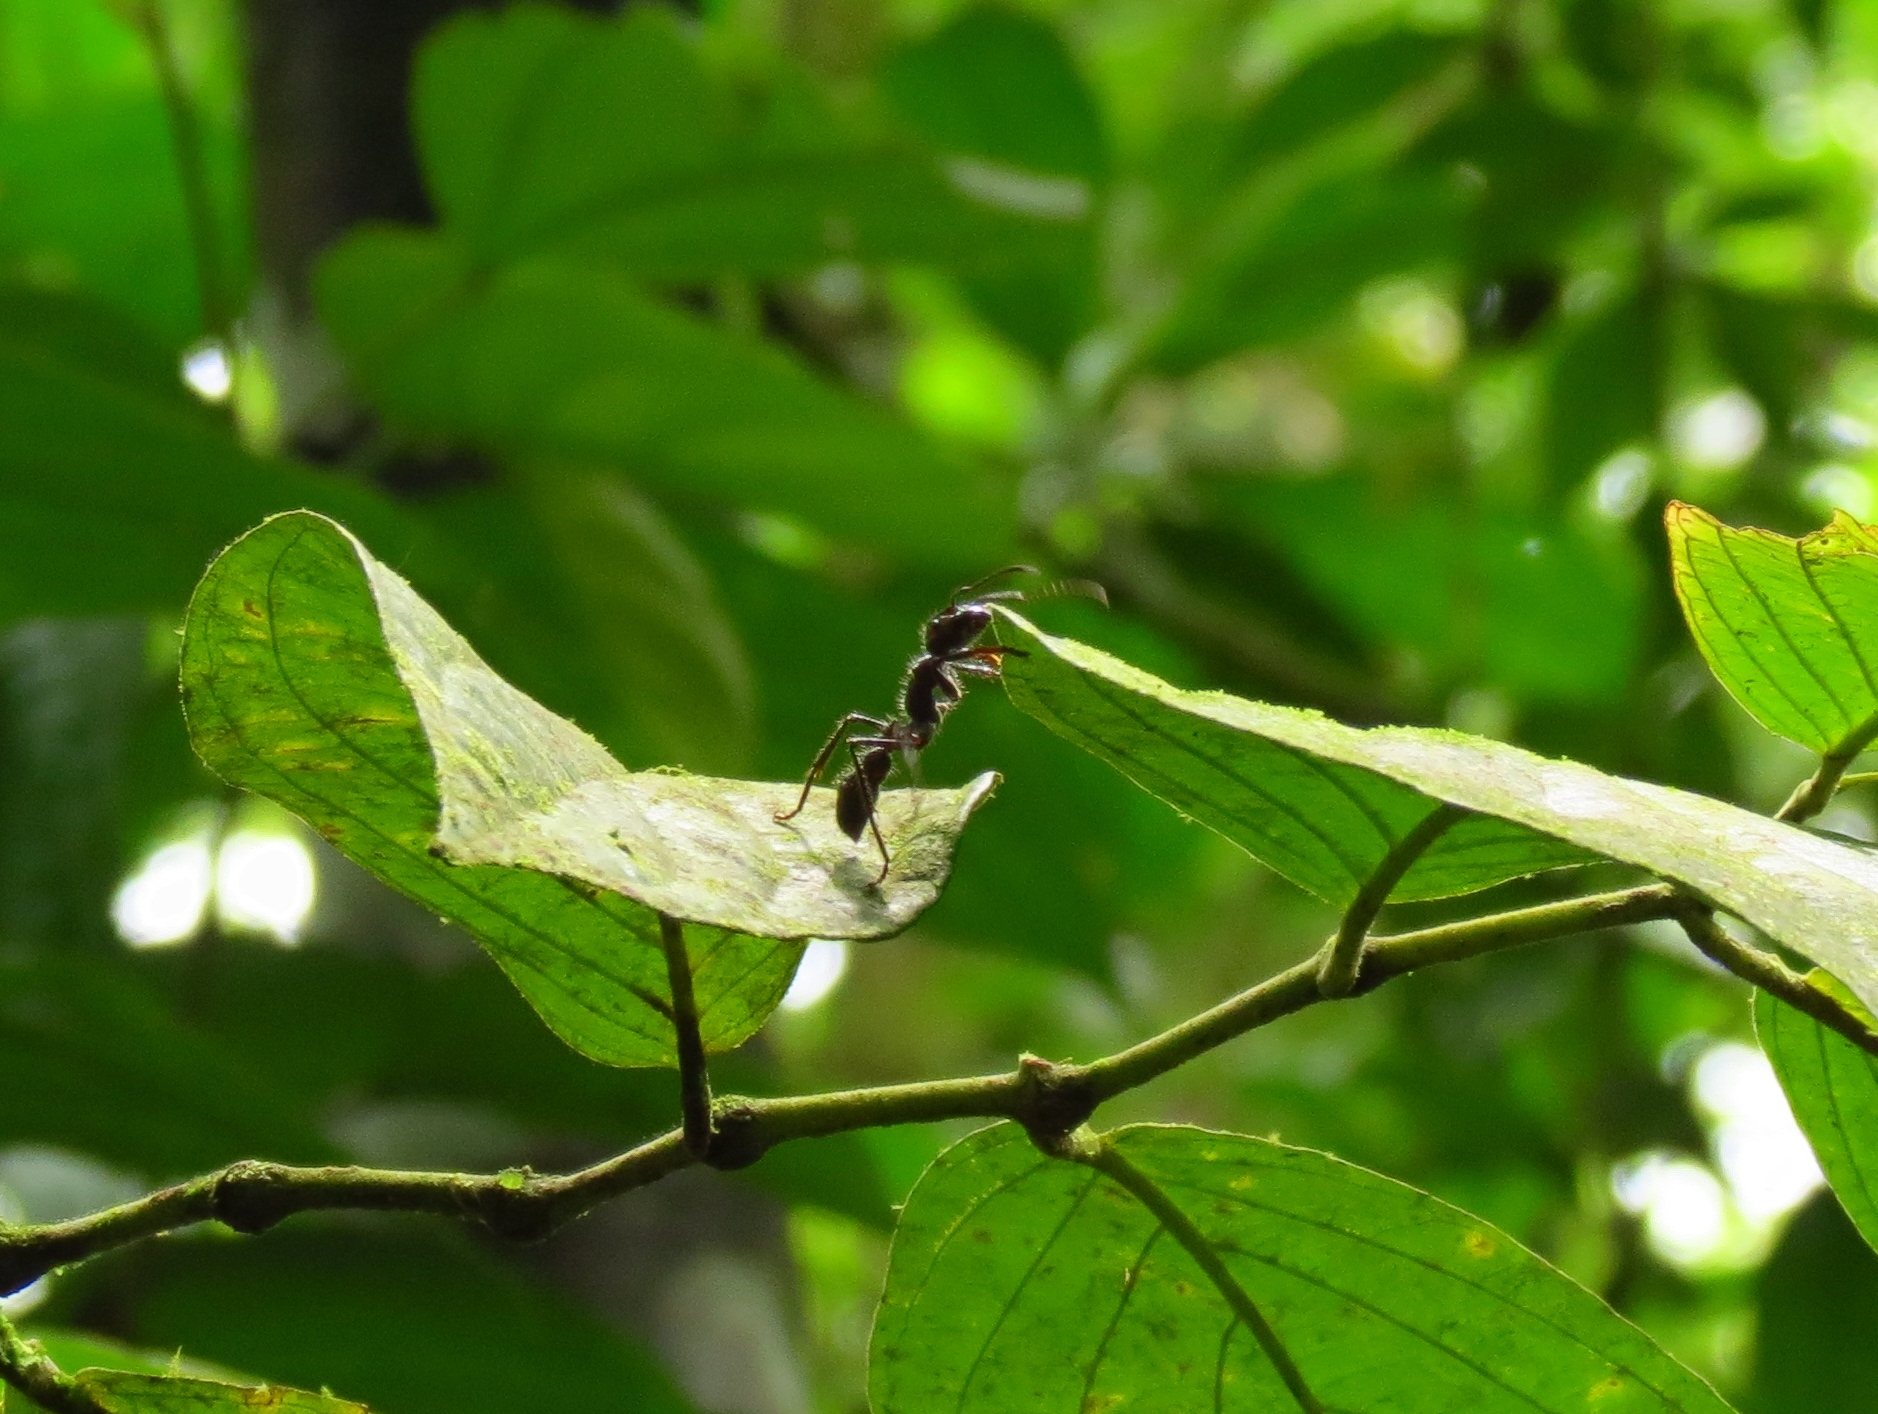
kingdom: Animalia
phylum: Arthropoda
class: Insecta
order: Hymenoptera
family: Formicidae
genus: Paraponera
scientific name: Paraponera clavata
